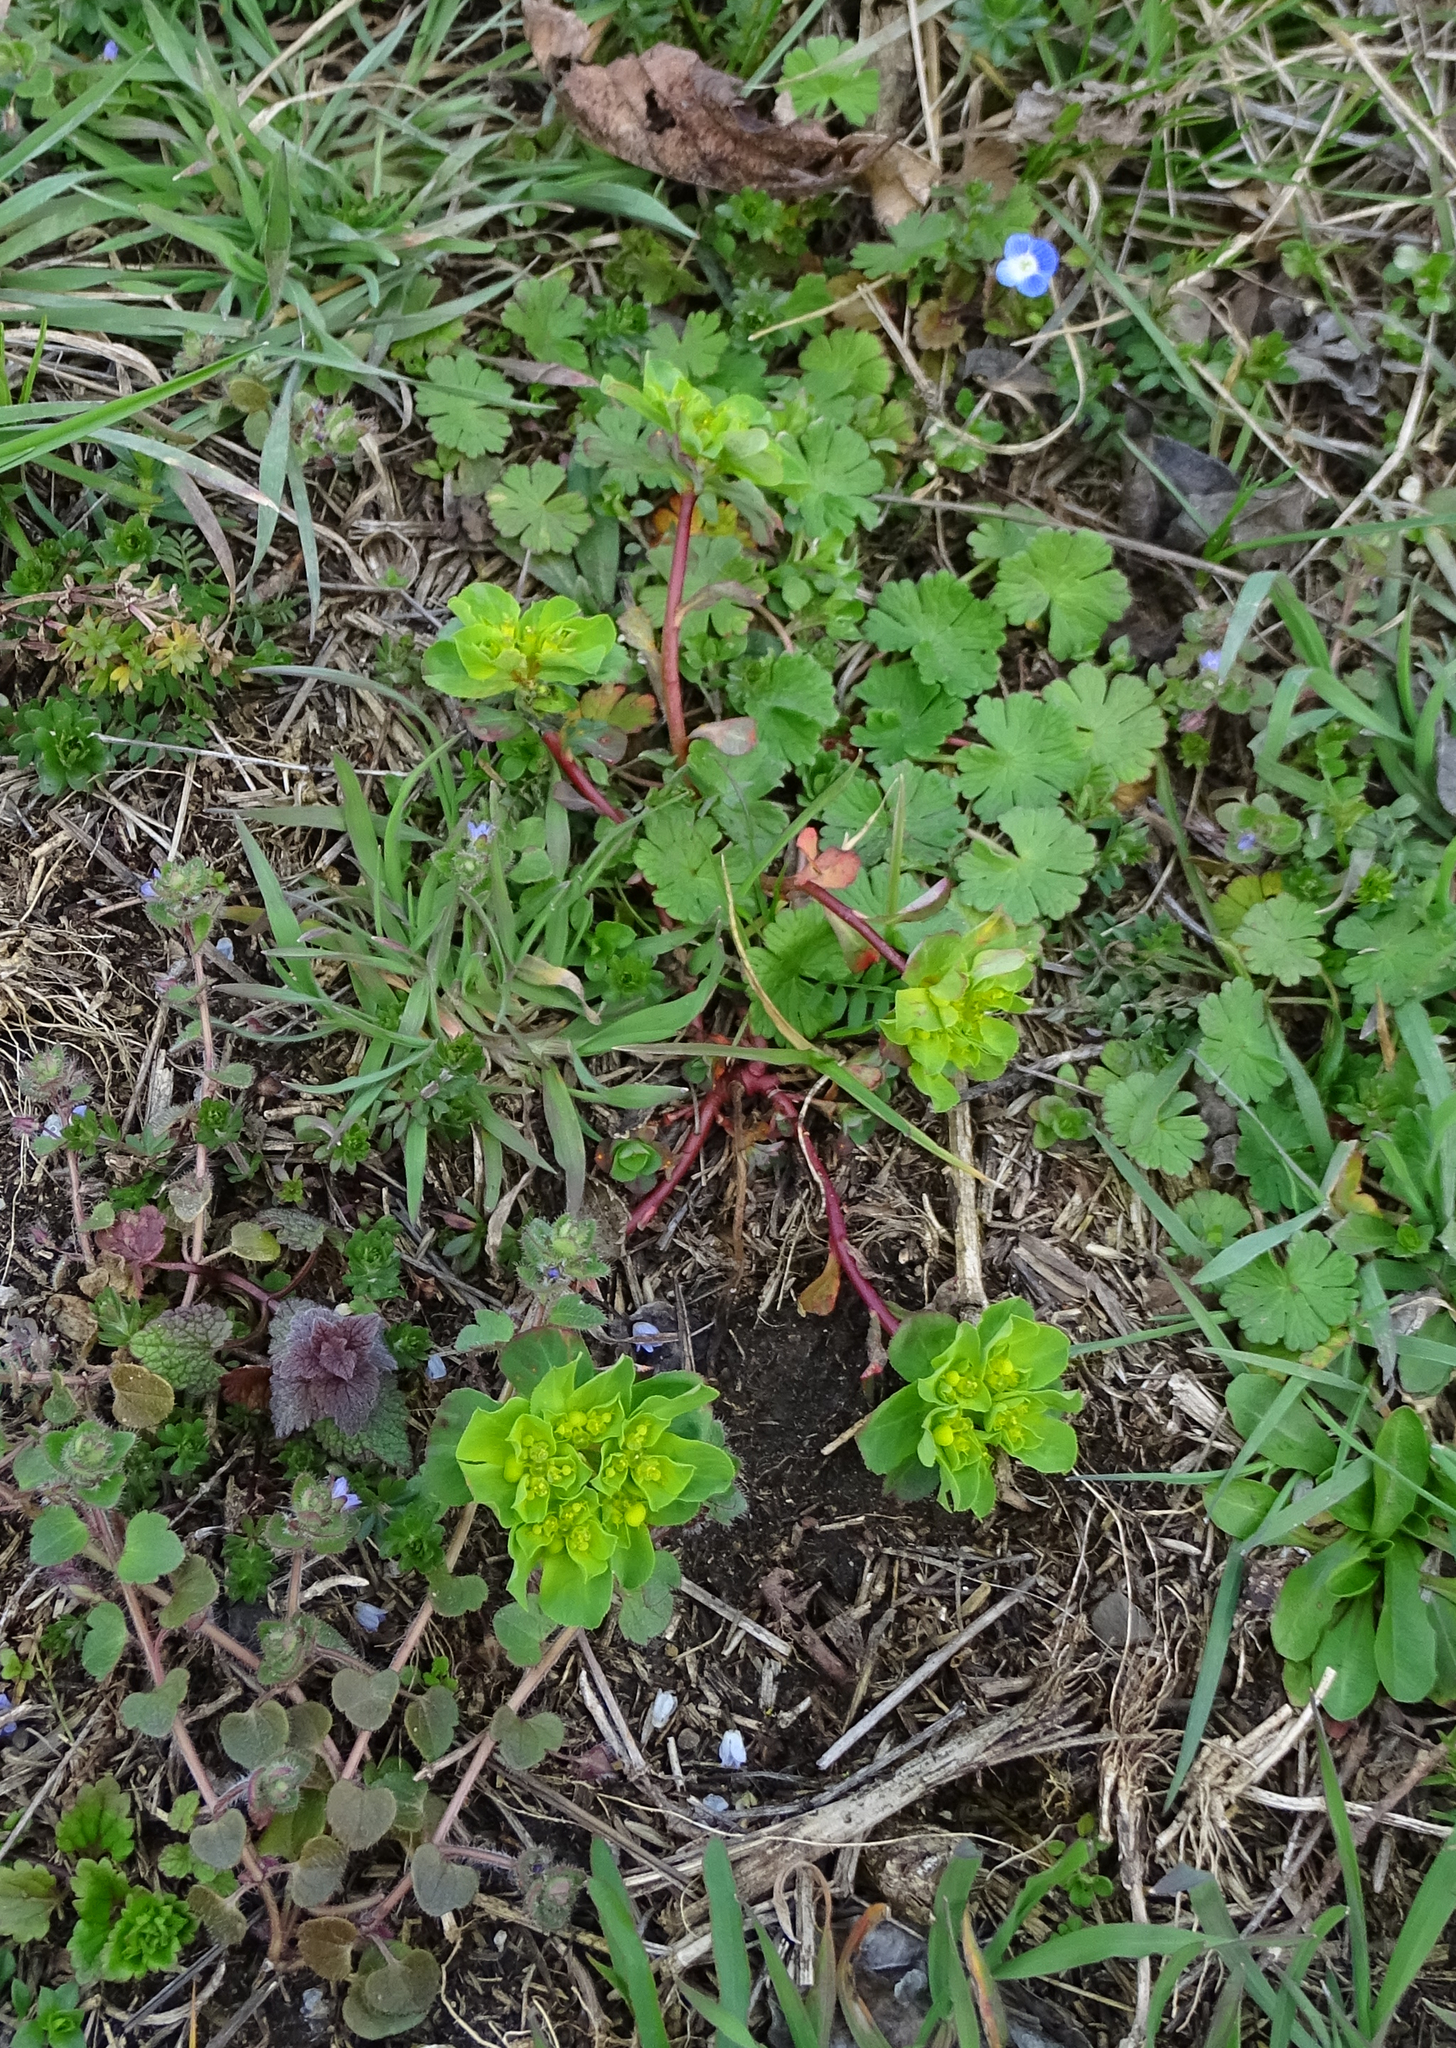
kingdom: Plantae
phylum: Tracheophyta
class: Magnoliopsida
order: Malpighiales
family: Euphorbiaceae
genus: Euphorbia
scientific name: Euphorbia helioscopia
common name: Sun spurge
